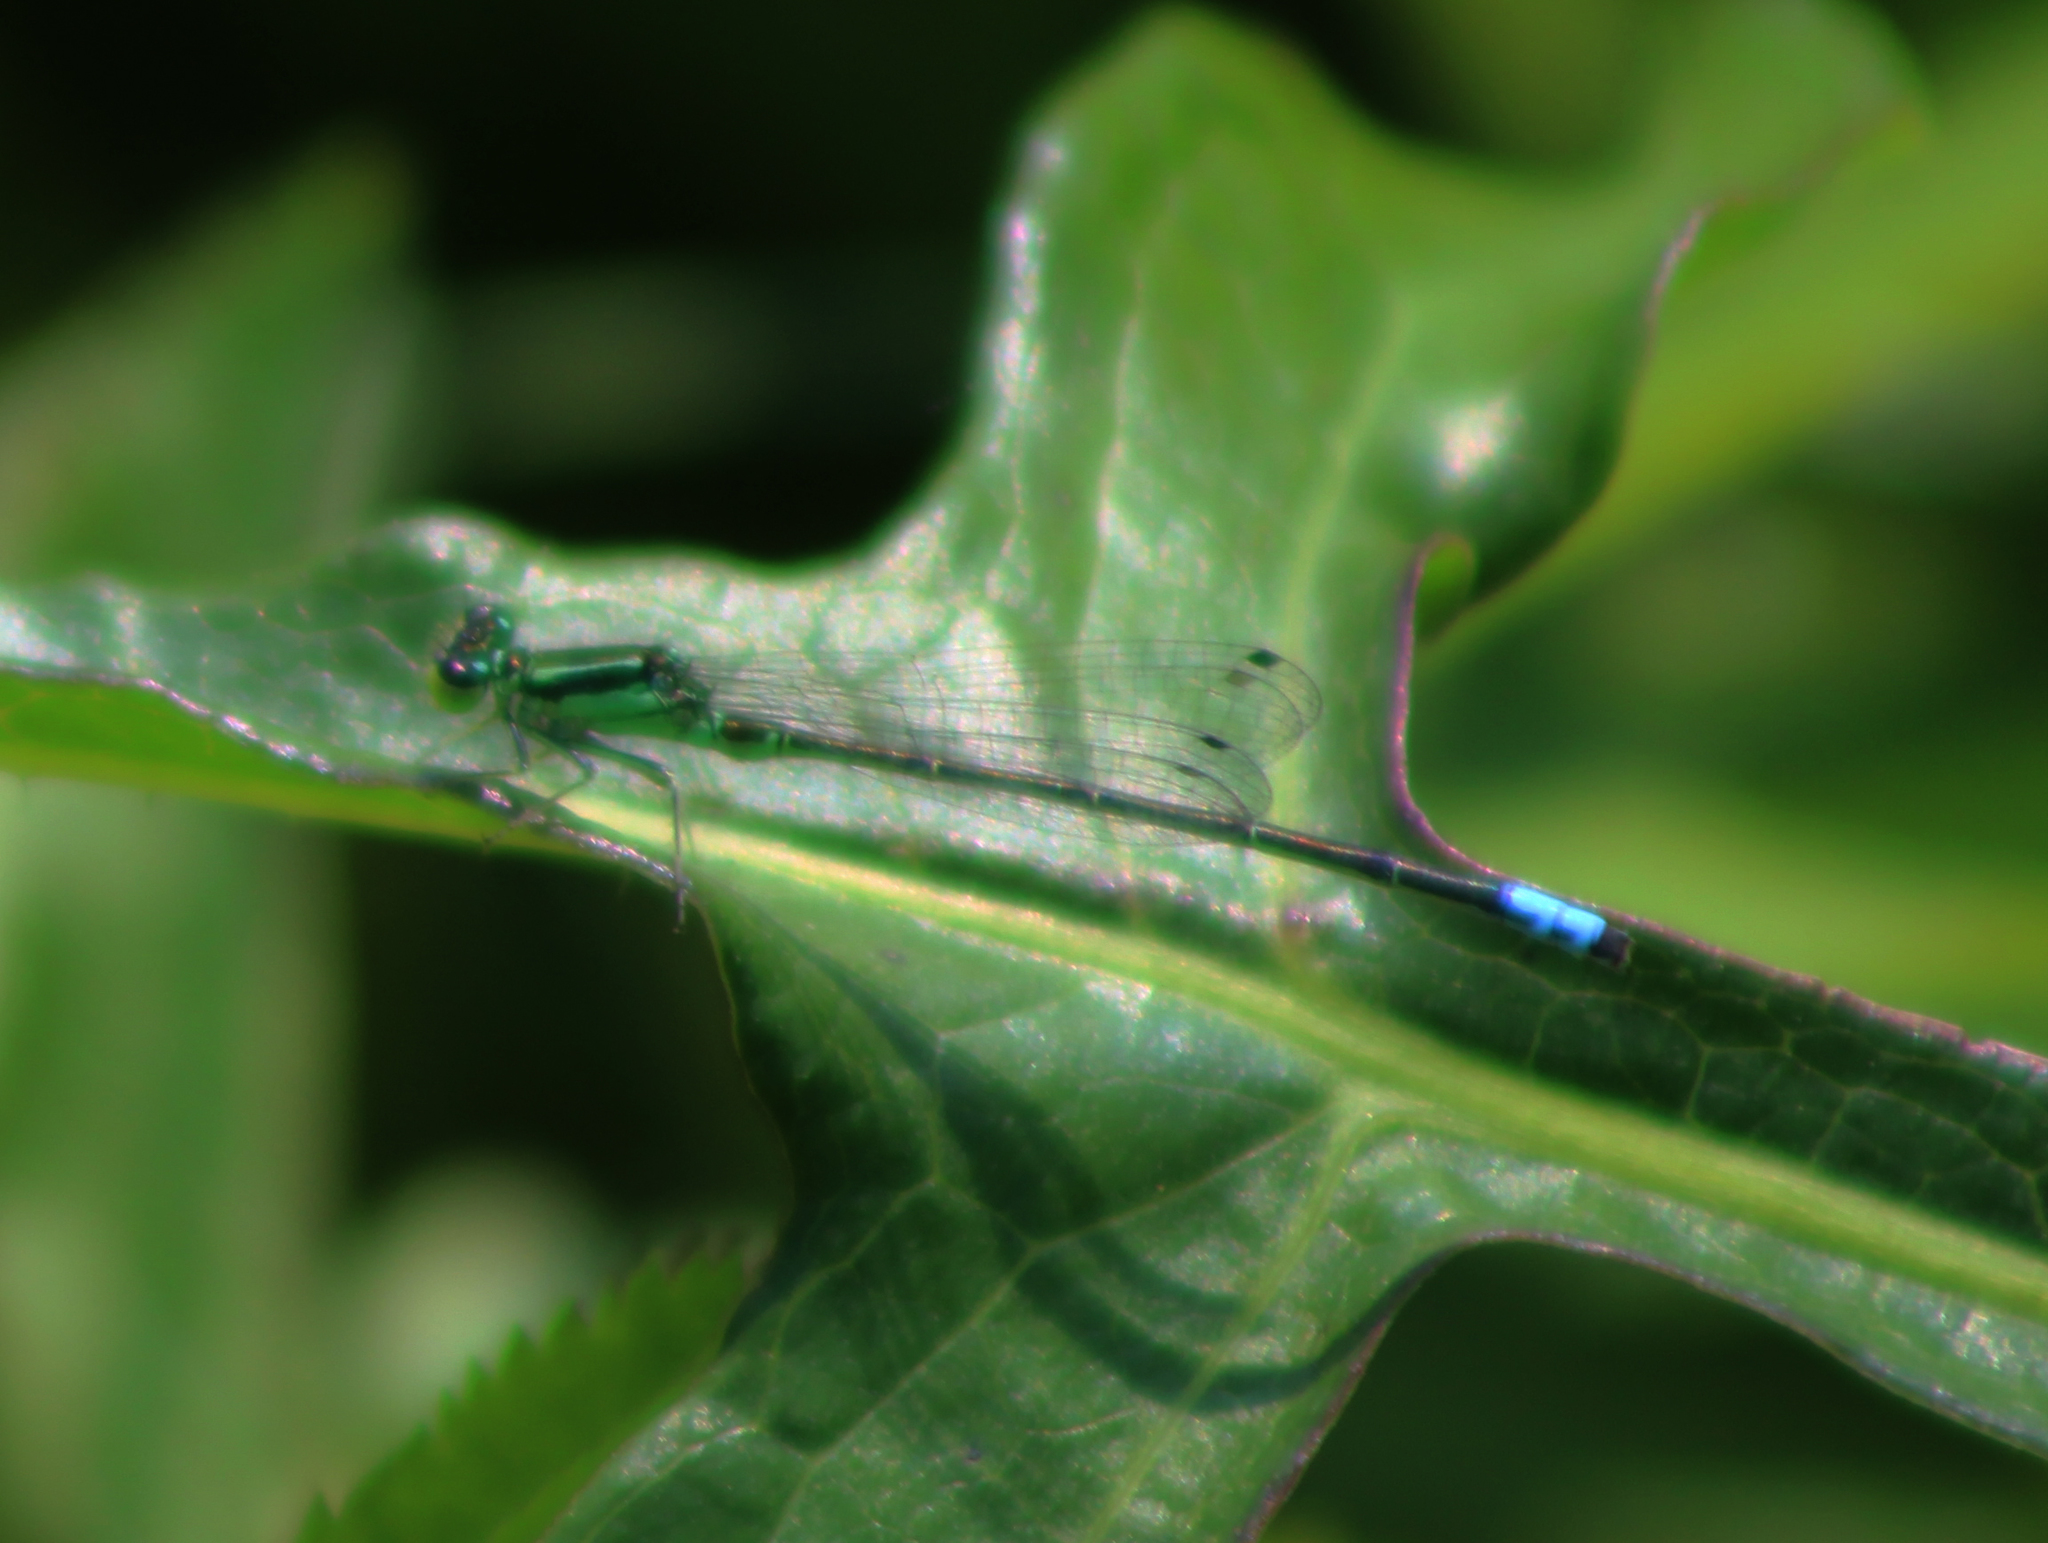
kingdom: Animalia
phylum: Arthropoda
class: Insecta
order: Odonata
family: Coenagrionidae
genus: Ischnura
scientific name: Ischnura verticalis
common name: Eastern forktail
